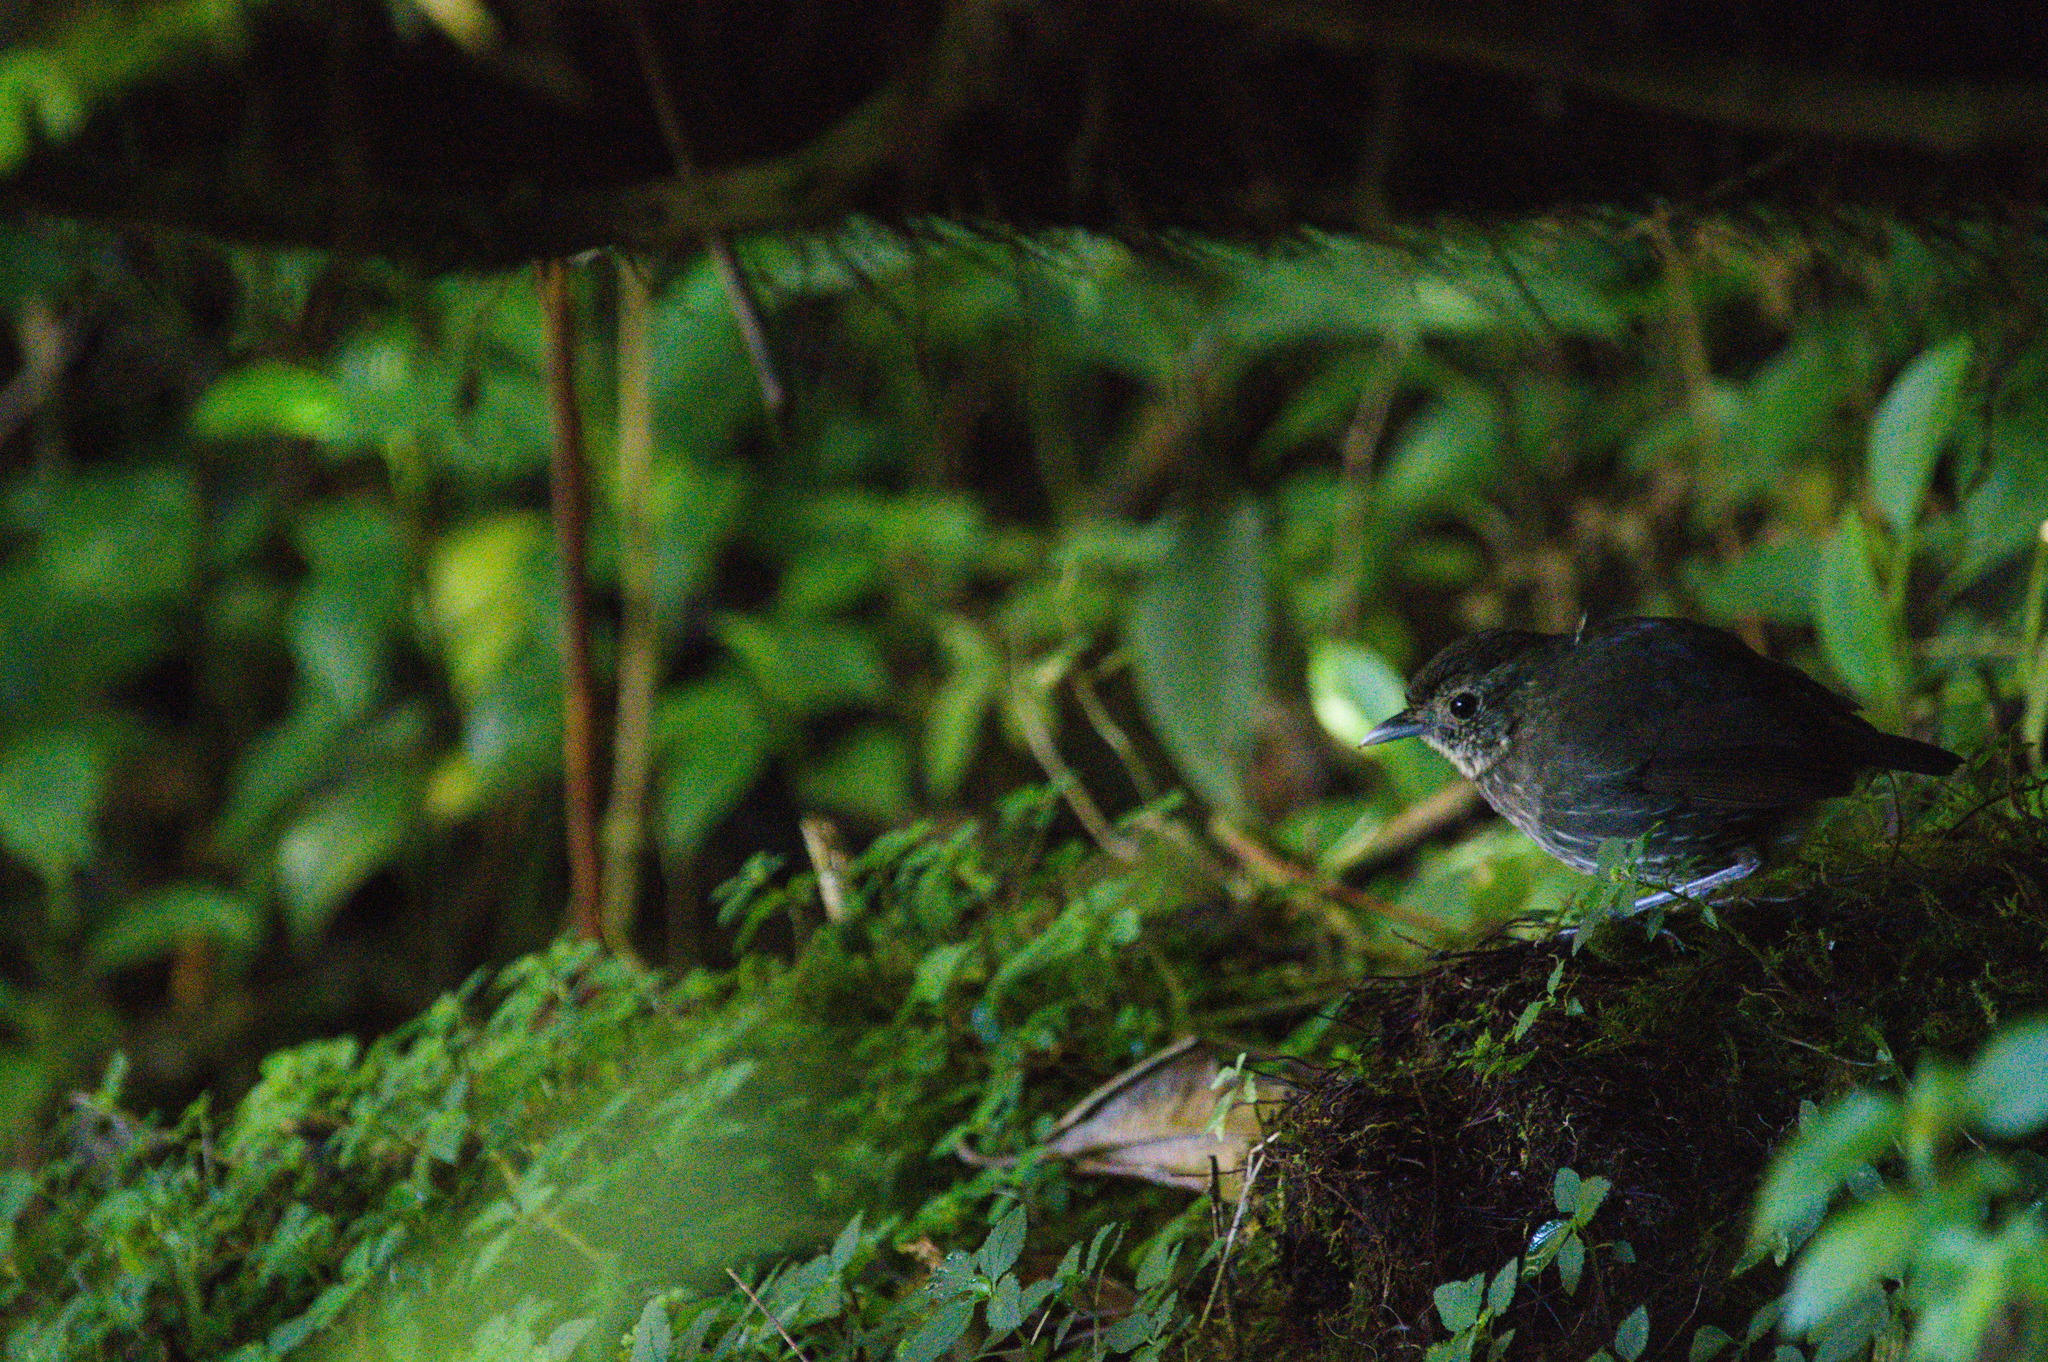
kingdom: Animalia
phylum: Chordata
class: Aves
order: Passeriformes
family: Grallariidae
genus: Grallaria
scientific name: Grallaria kaestneri
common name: Cundinamarca antpitta
